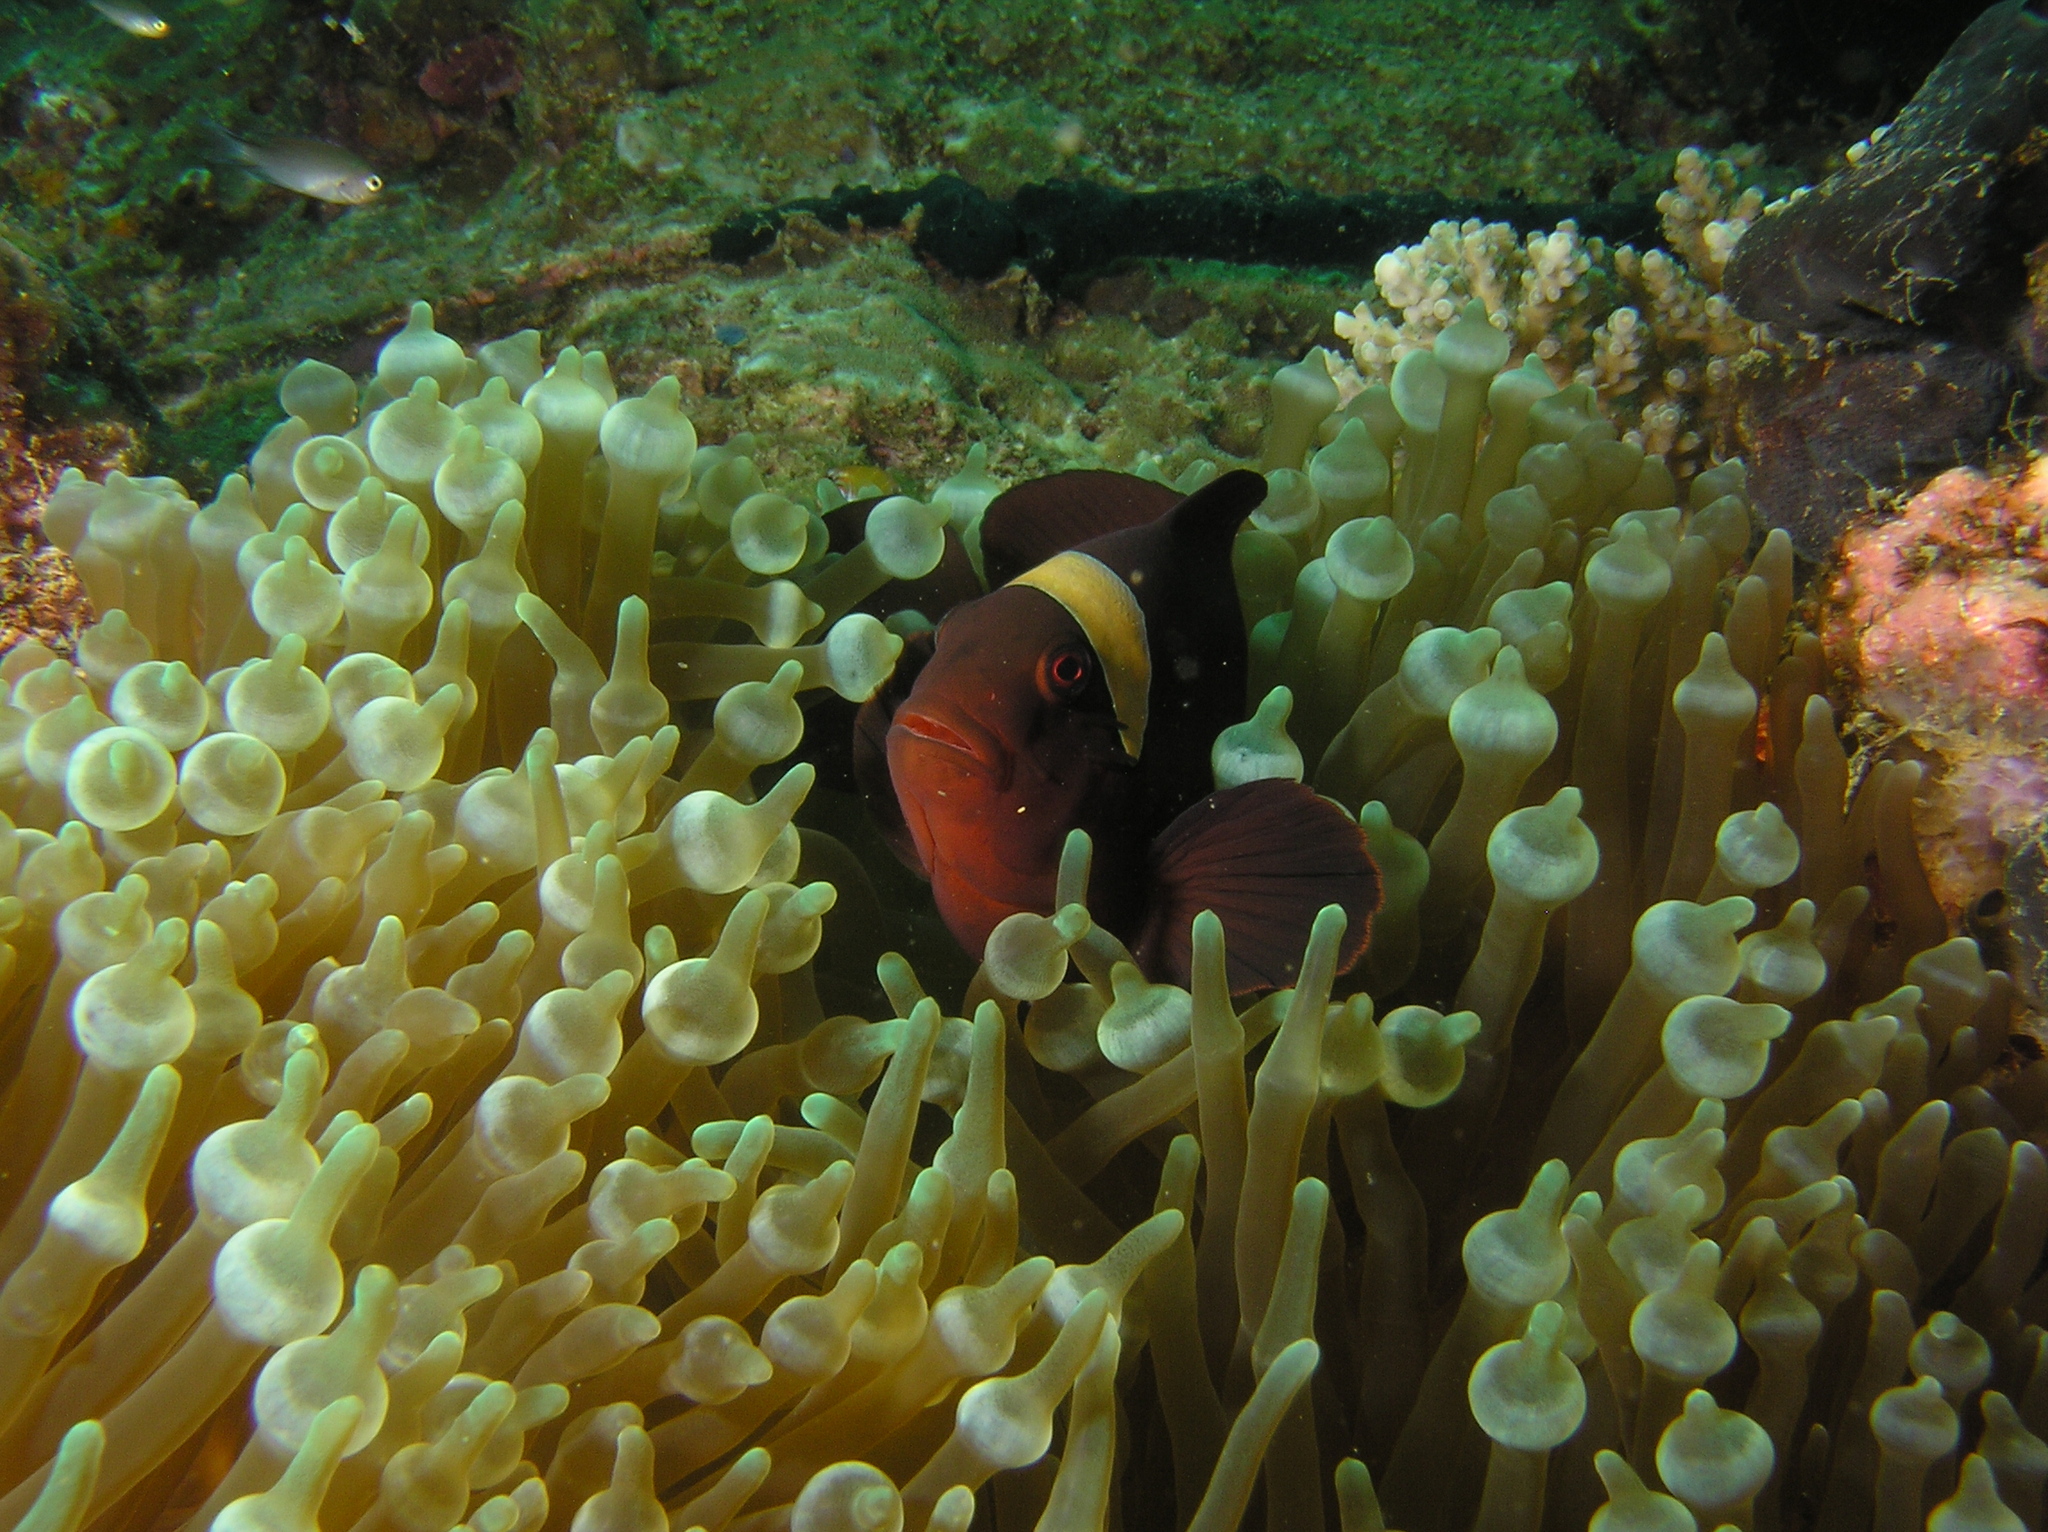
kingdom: Animalia
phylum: Chordata
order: Perciformes
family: Pomacentridae
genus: Premnas
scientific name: Premnas biaculeatus
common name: Spinecheek anemonefish
